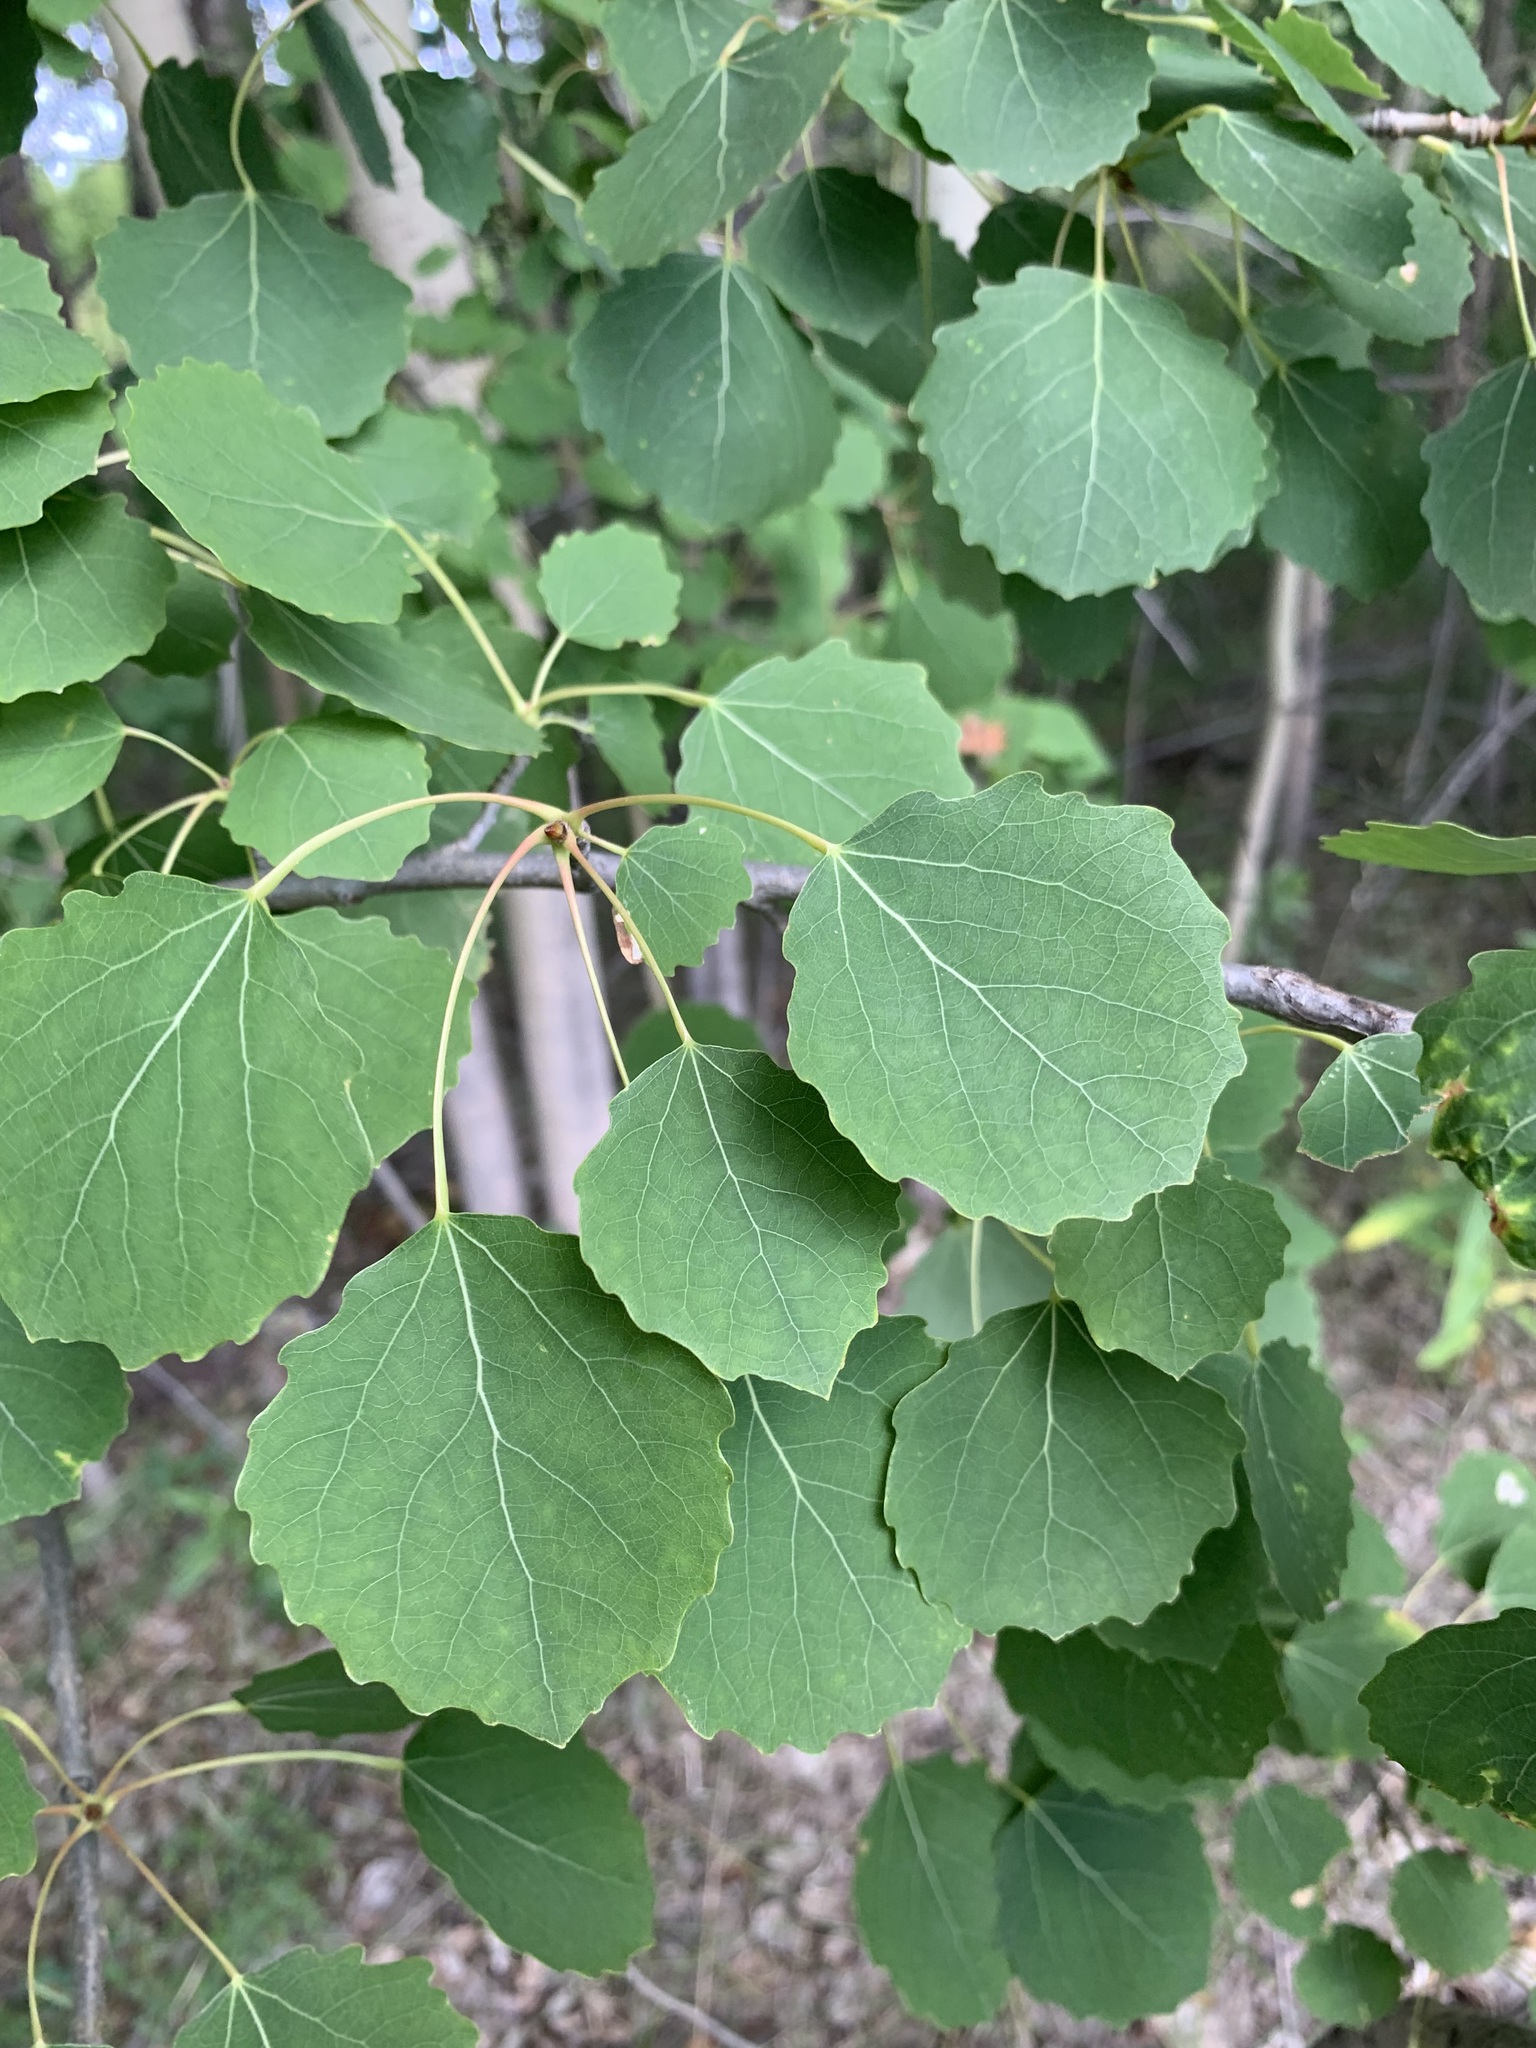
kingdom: Plantae
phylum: Tracheophyta
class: Magnoliopsida
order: Malpighiales
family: Salicaceae
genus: Populus
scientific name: Populus tremula
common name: European aspen
